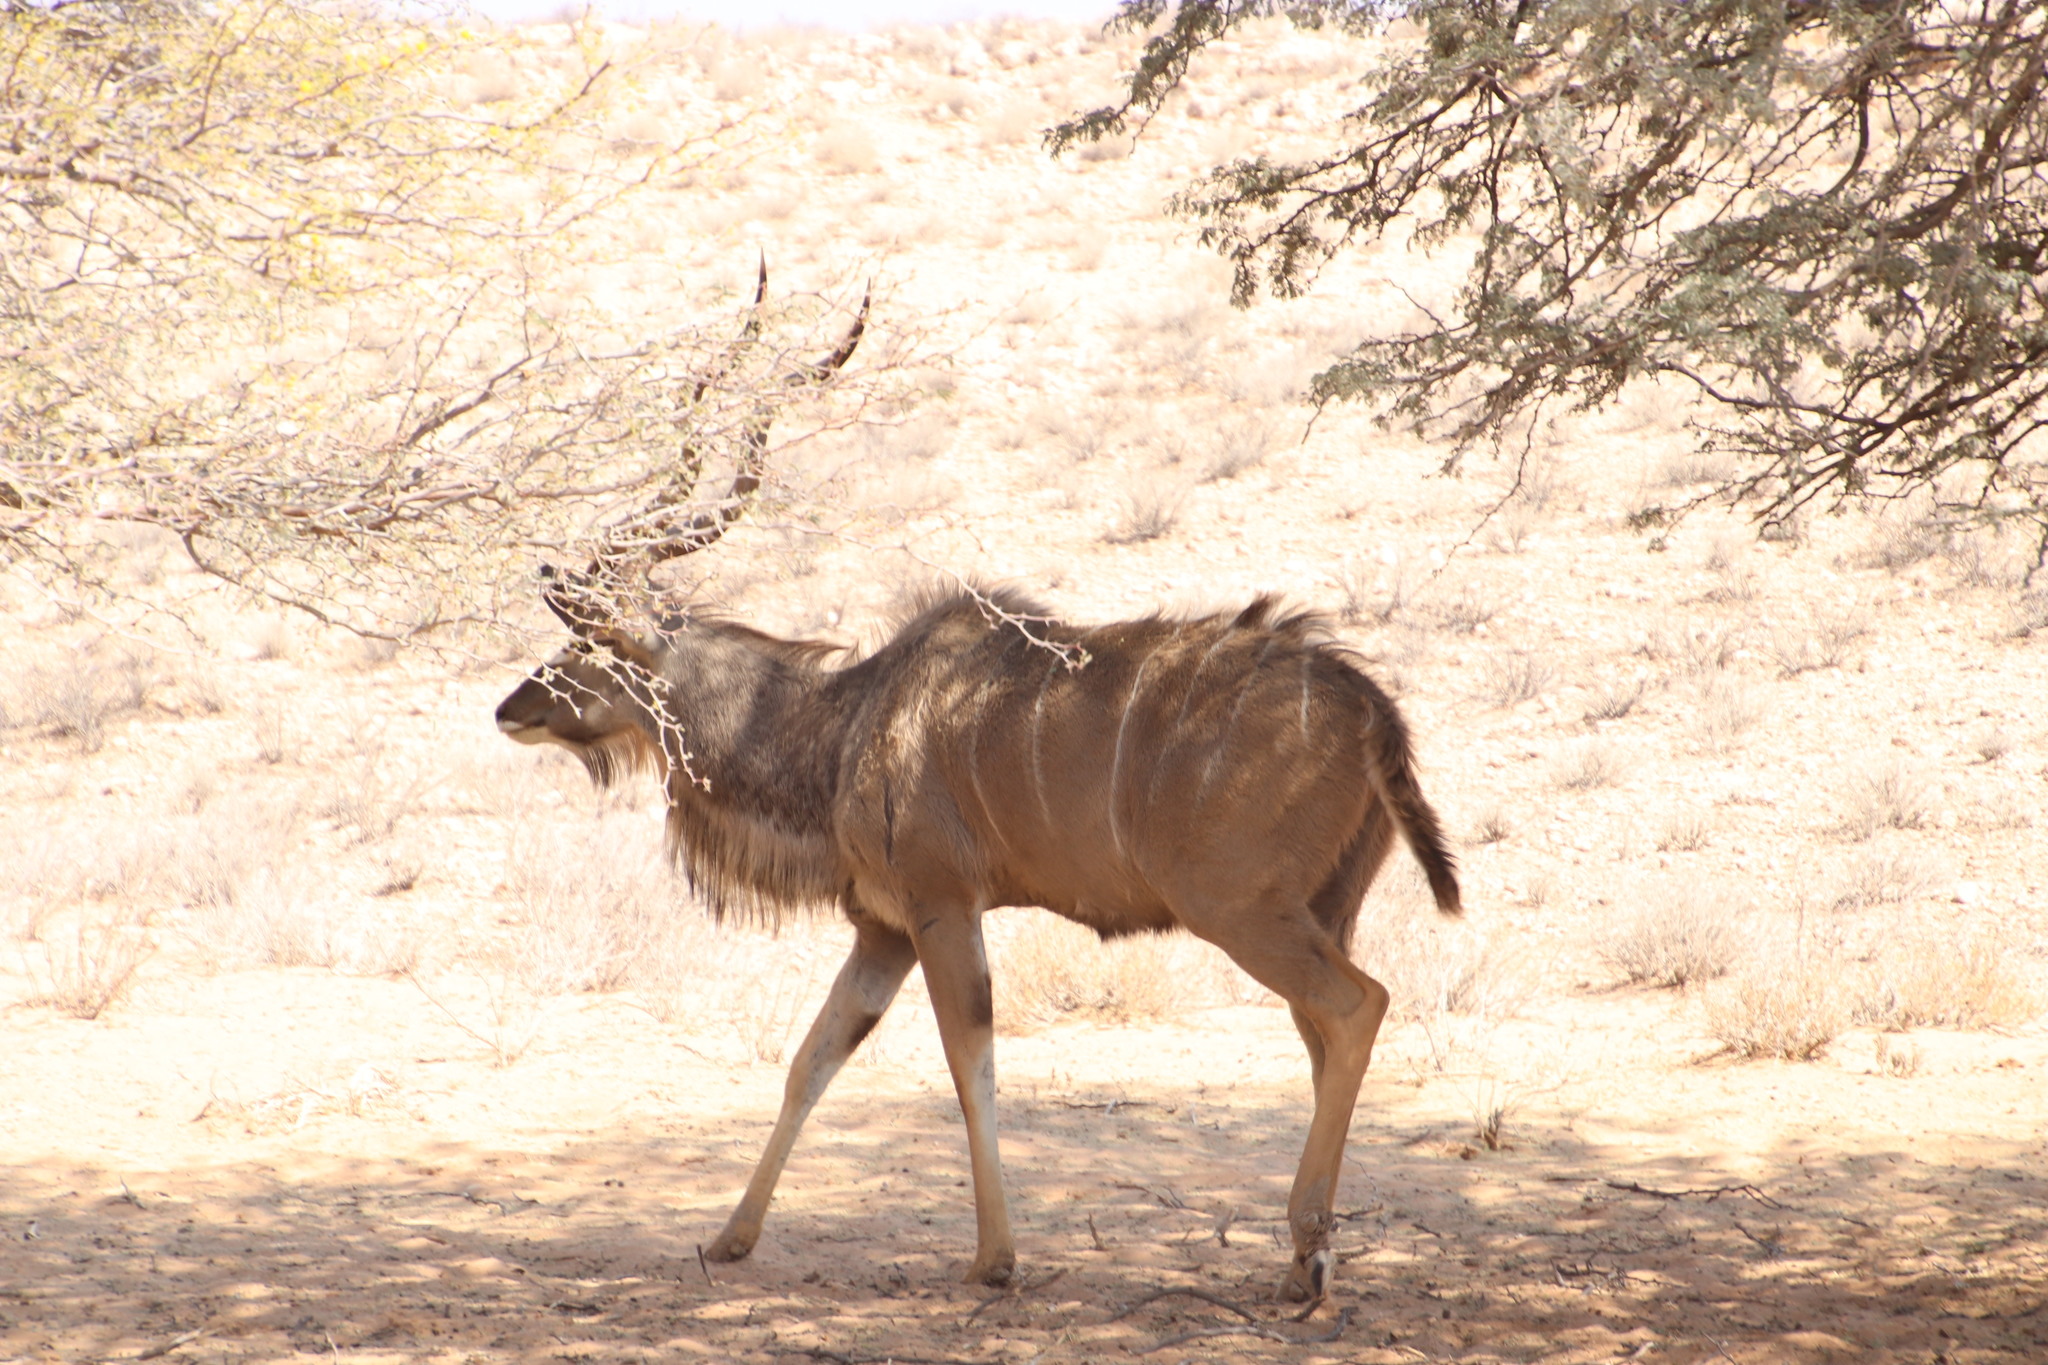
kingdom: Animalia
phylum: Chordata
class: Mammalia
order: Artiodactyla
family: Bovidae
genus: Tragelaphus
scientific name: Tragelaphus strepsiceros
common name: Greater kudu
